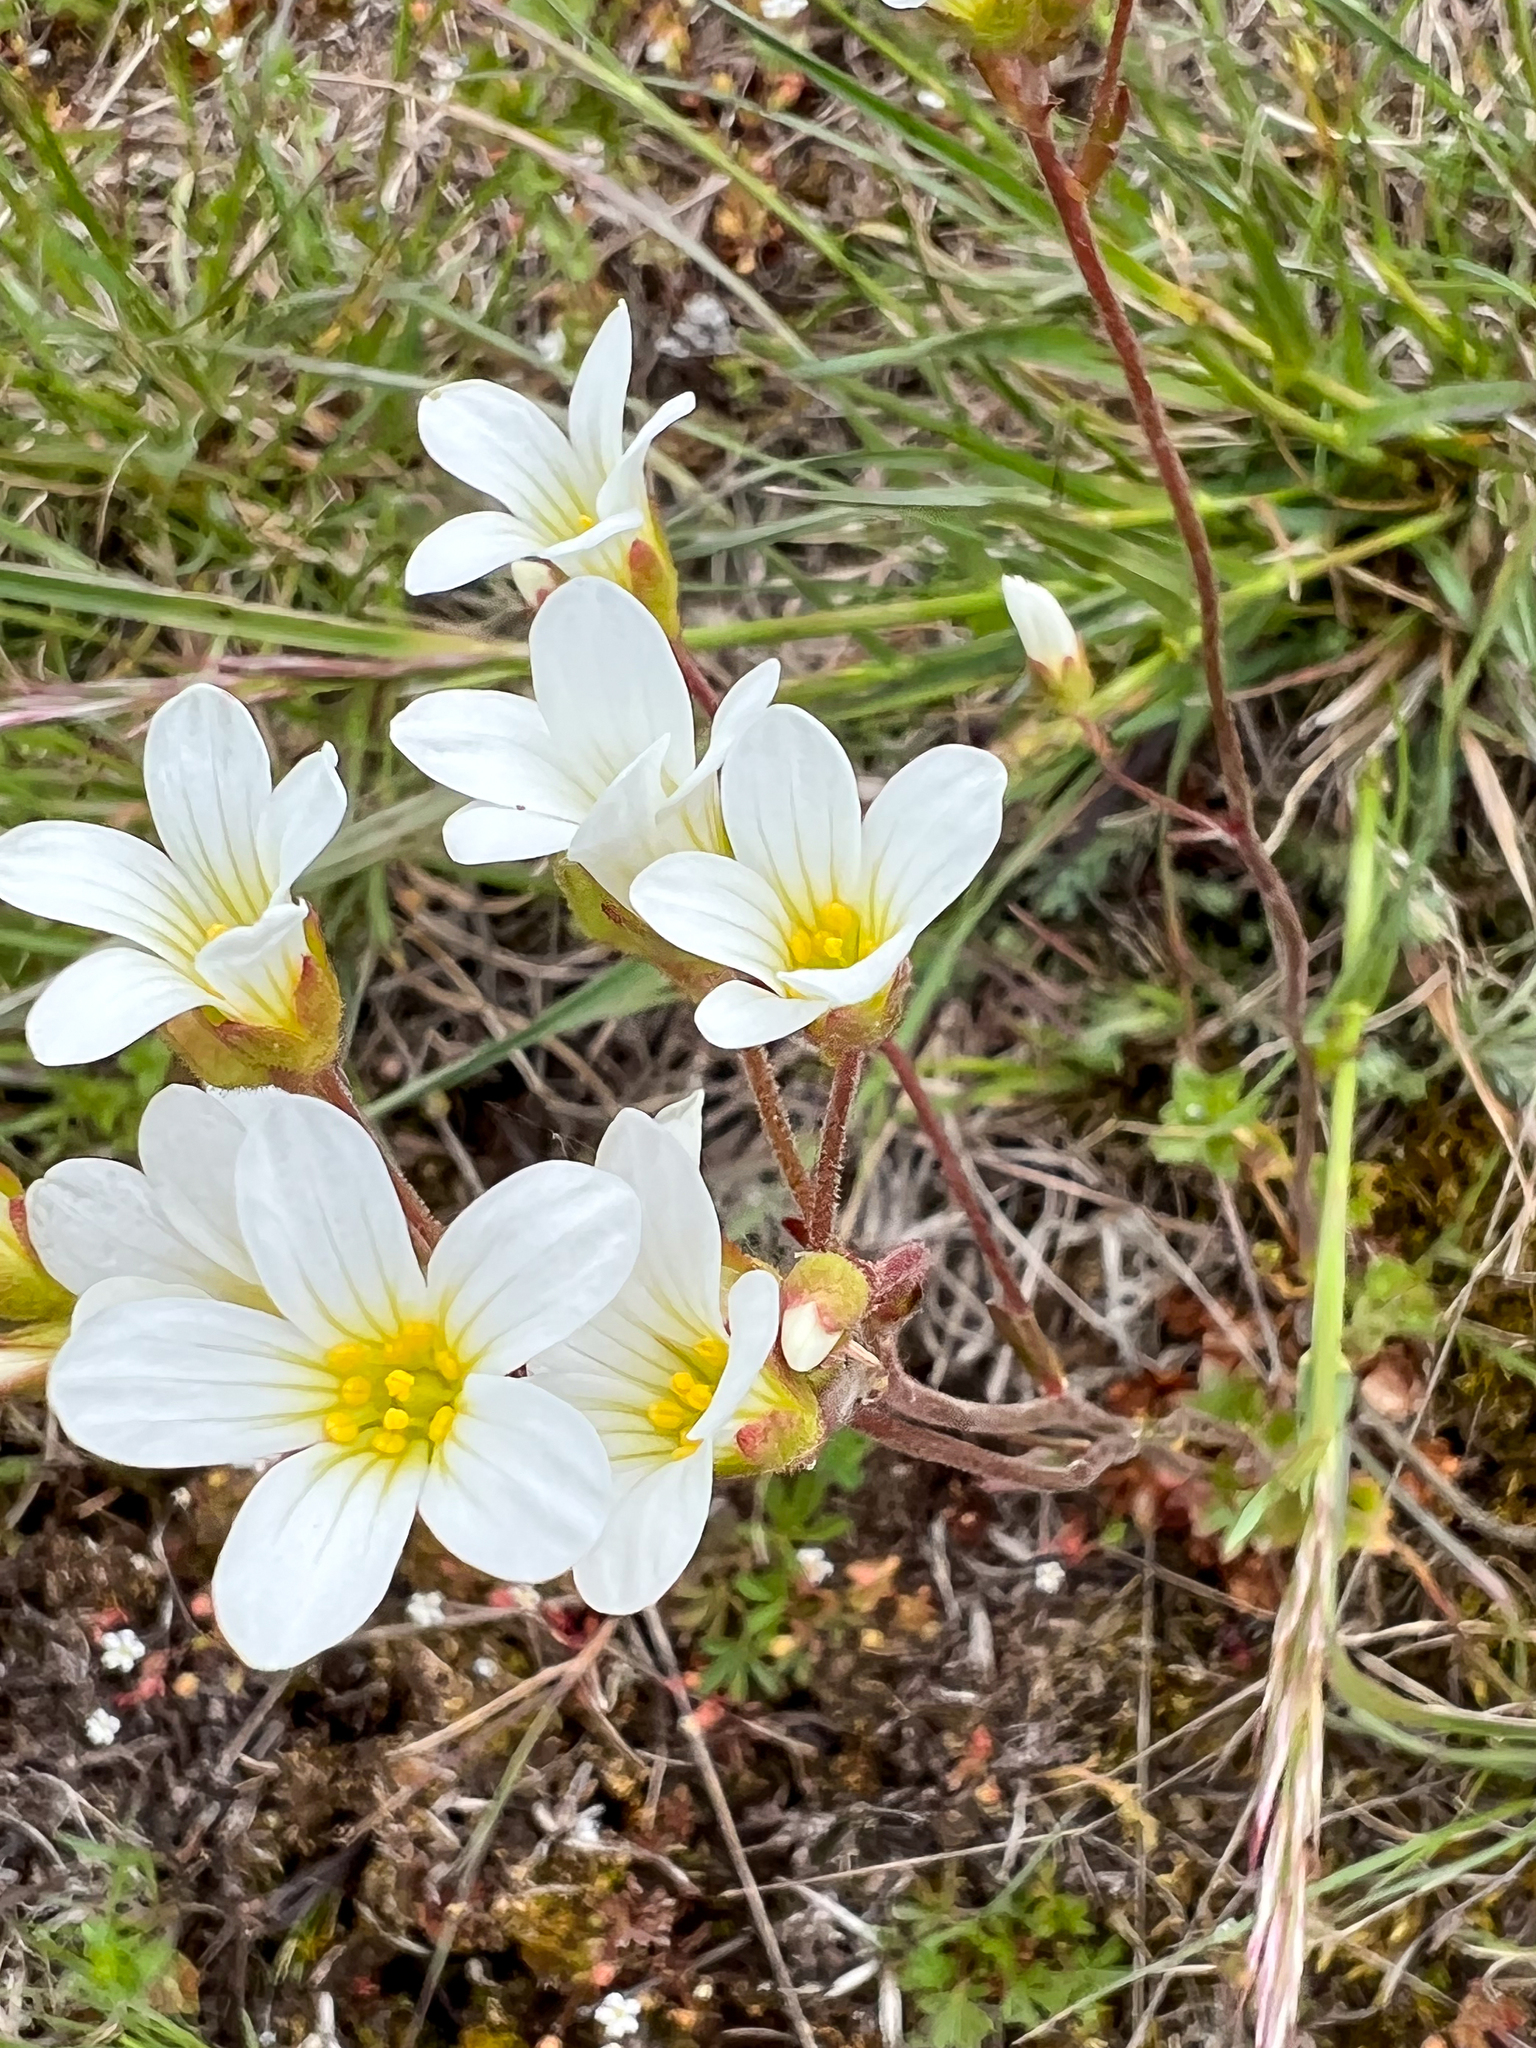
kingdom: Plantae
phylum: Tracheophyta
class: Magnoliopsida
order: Saxifragales
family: Saxifragaceae
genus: Saxifraga
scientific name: Saxifraga granulata
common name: Meadow saxifrage
